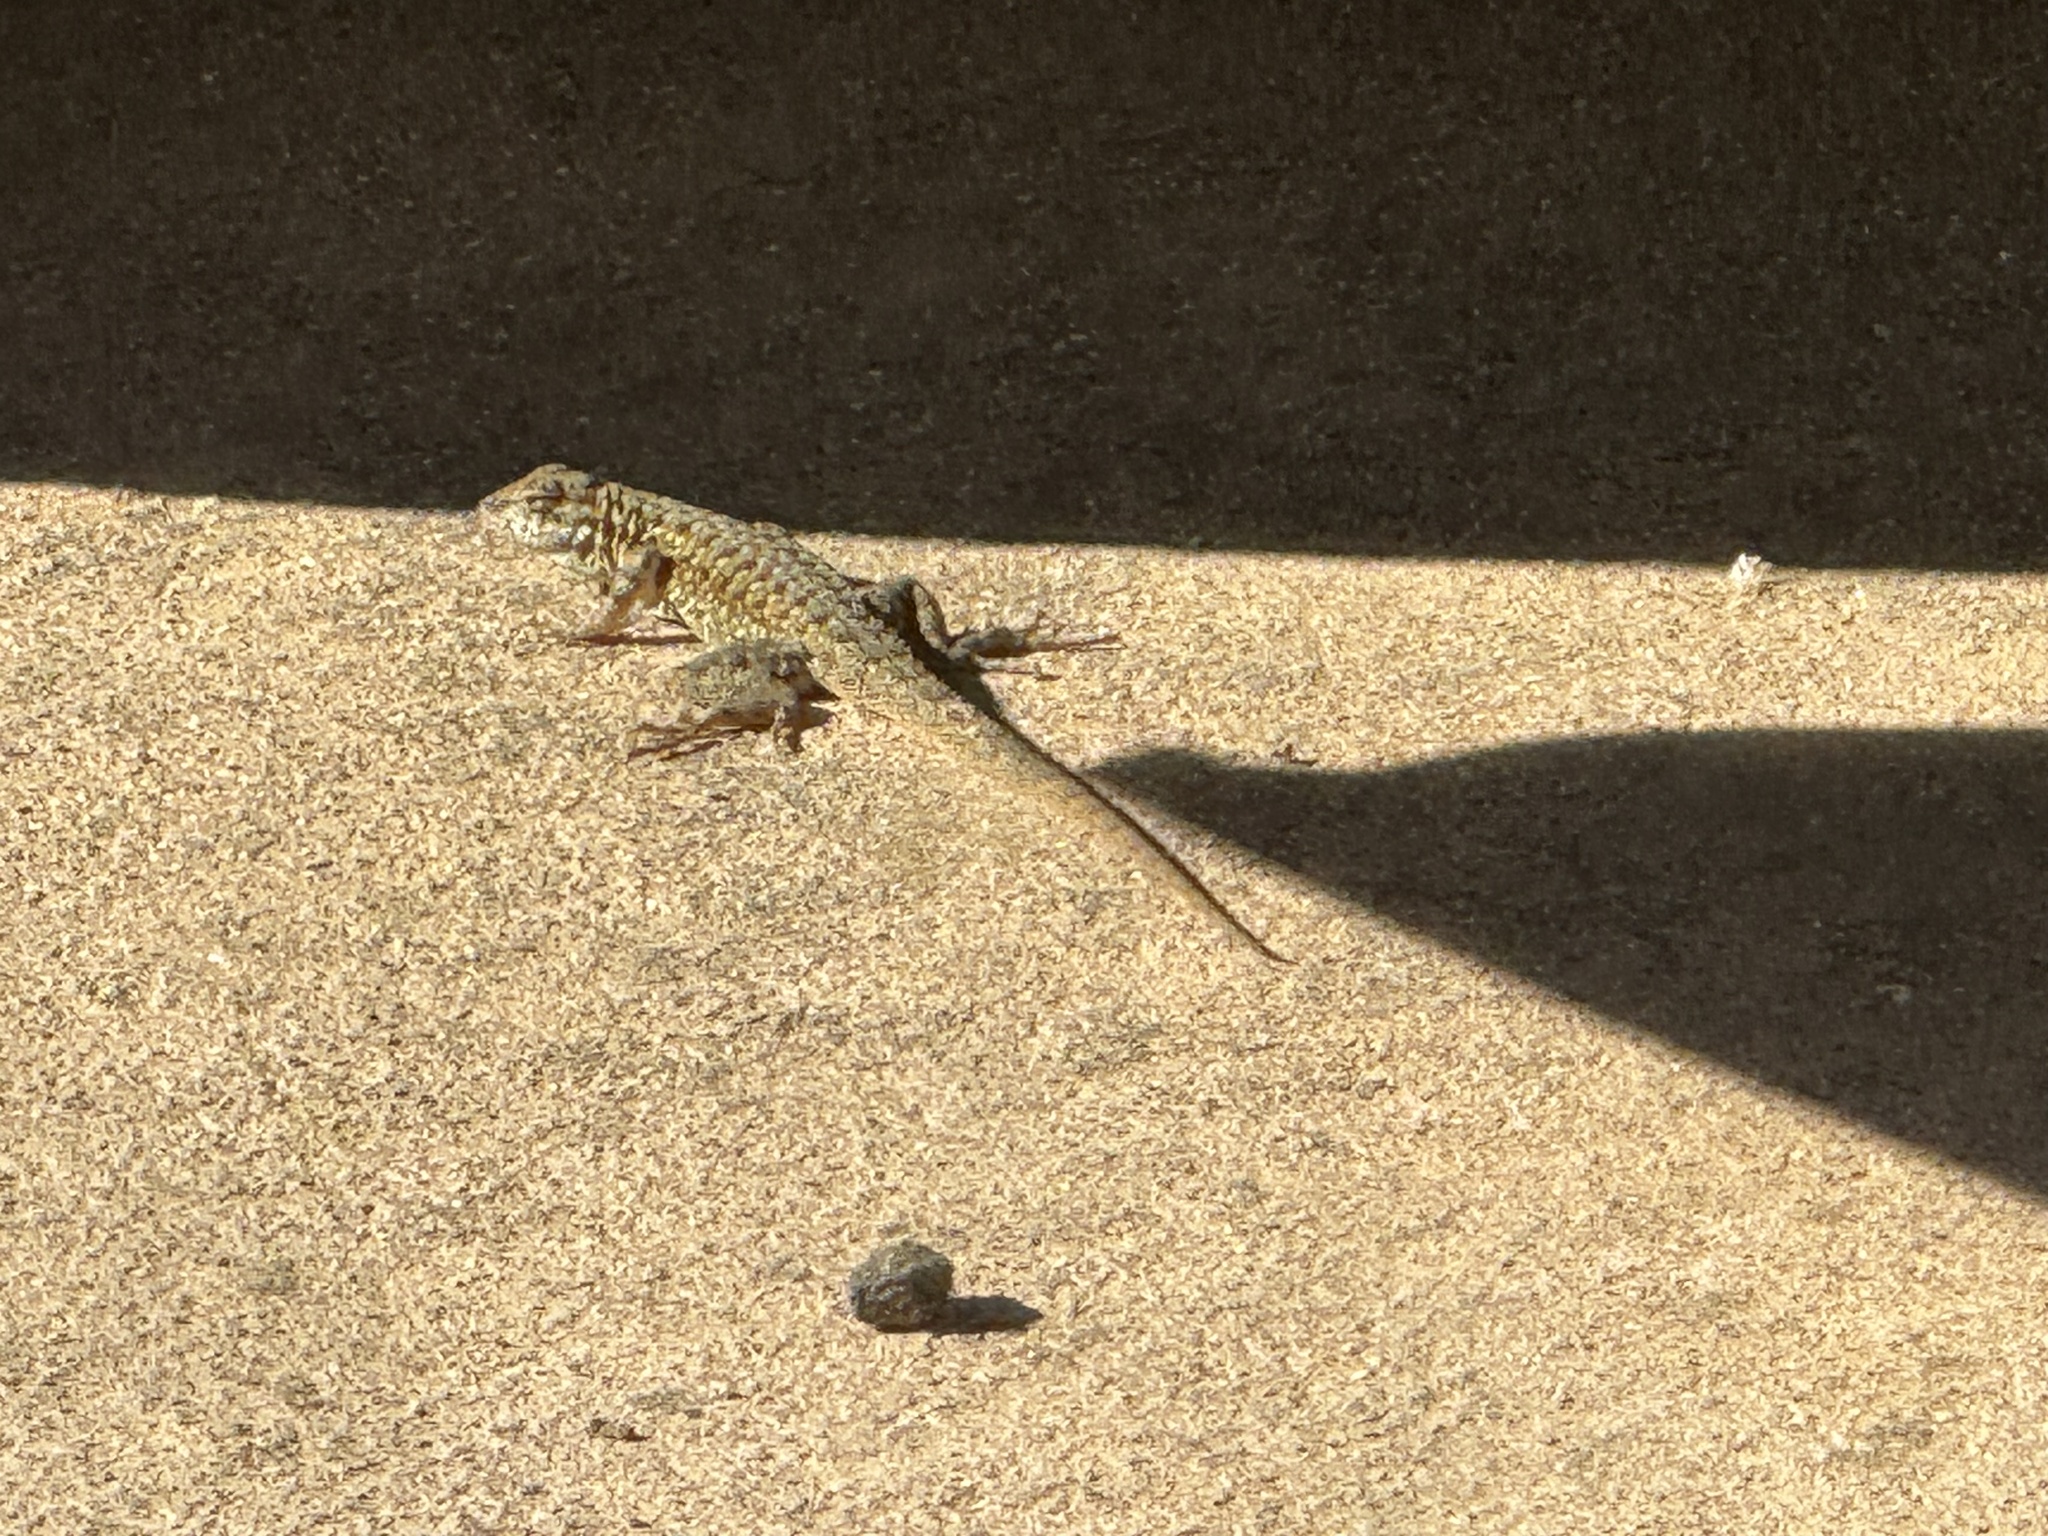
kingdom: Animalia
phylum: Chordata
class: Squamata
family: Phrynosomatidae
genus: Uta
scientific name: Uta stansburiana
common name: Side-blotched lizard
